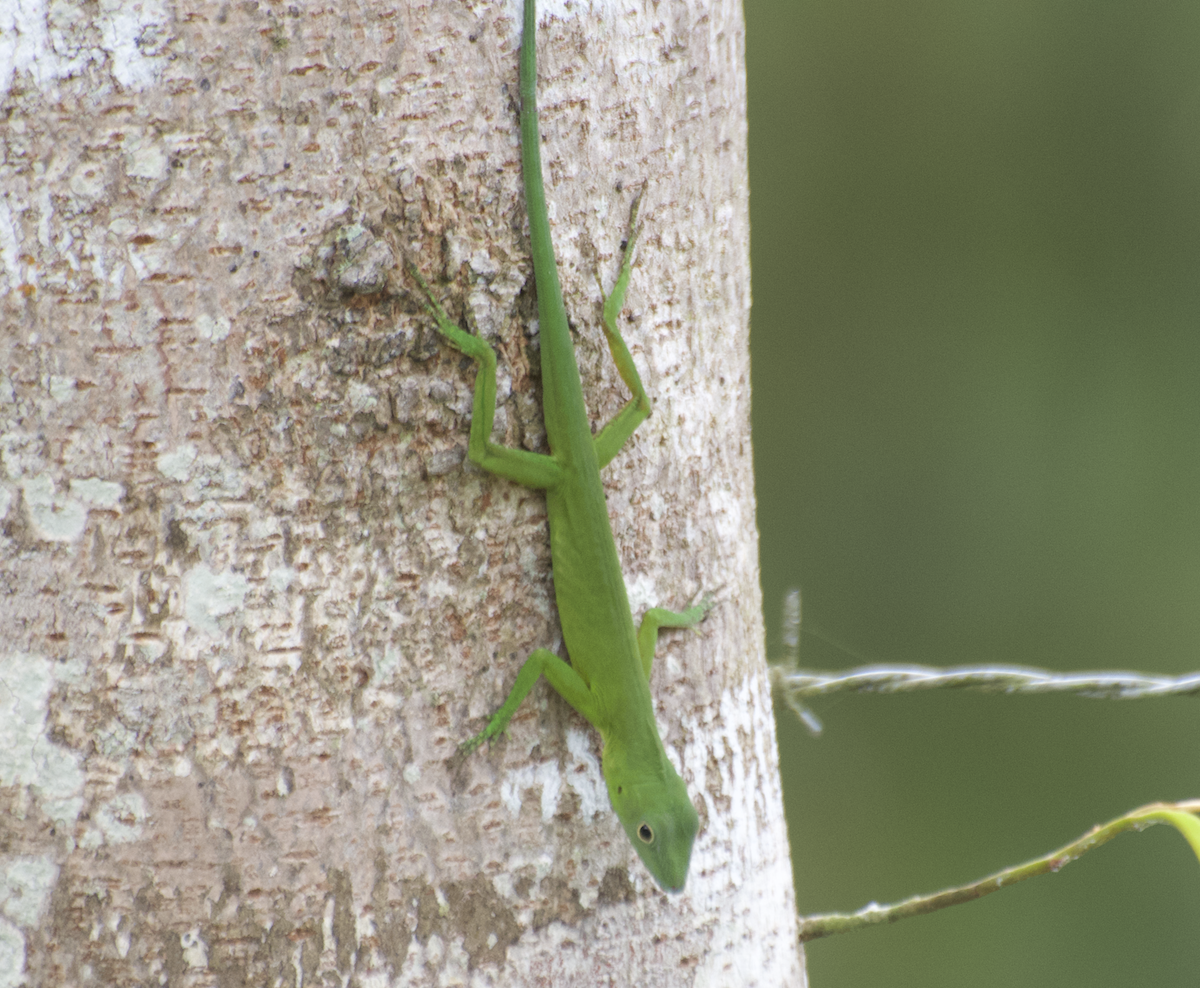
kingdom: Animalia
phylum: Chordata
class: Squamata
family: Dactyloidae
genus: Anolis
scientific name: Anolis chloris
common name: Boulenger's green anole
